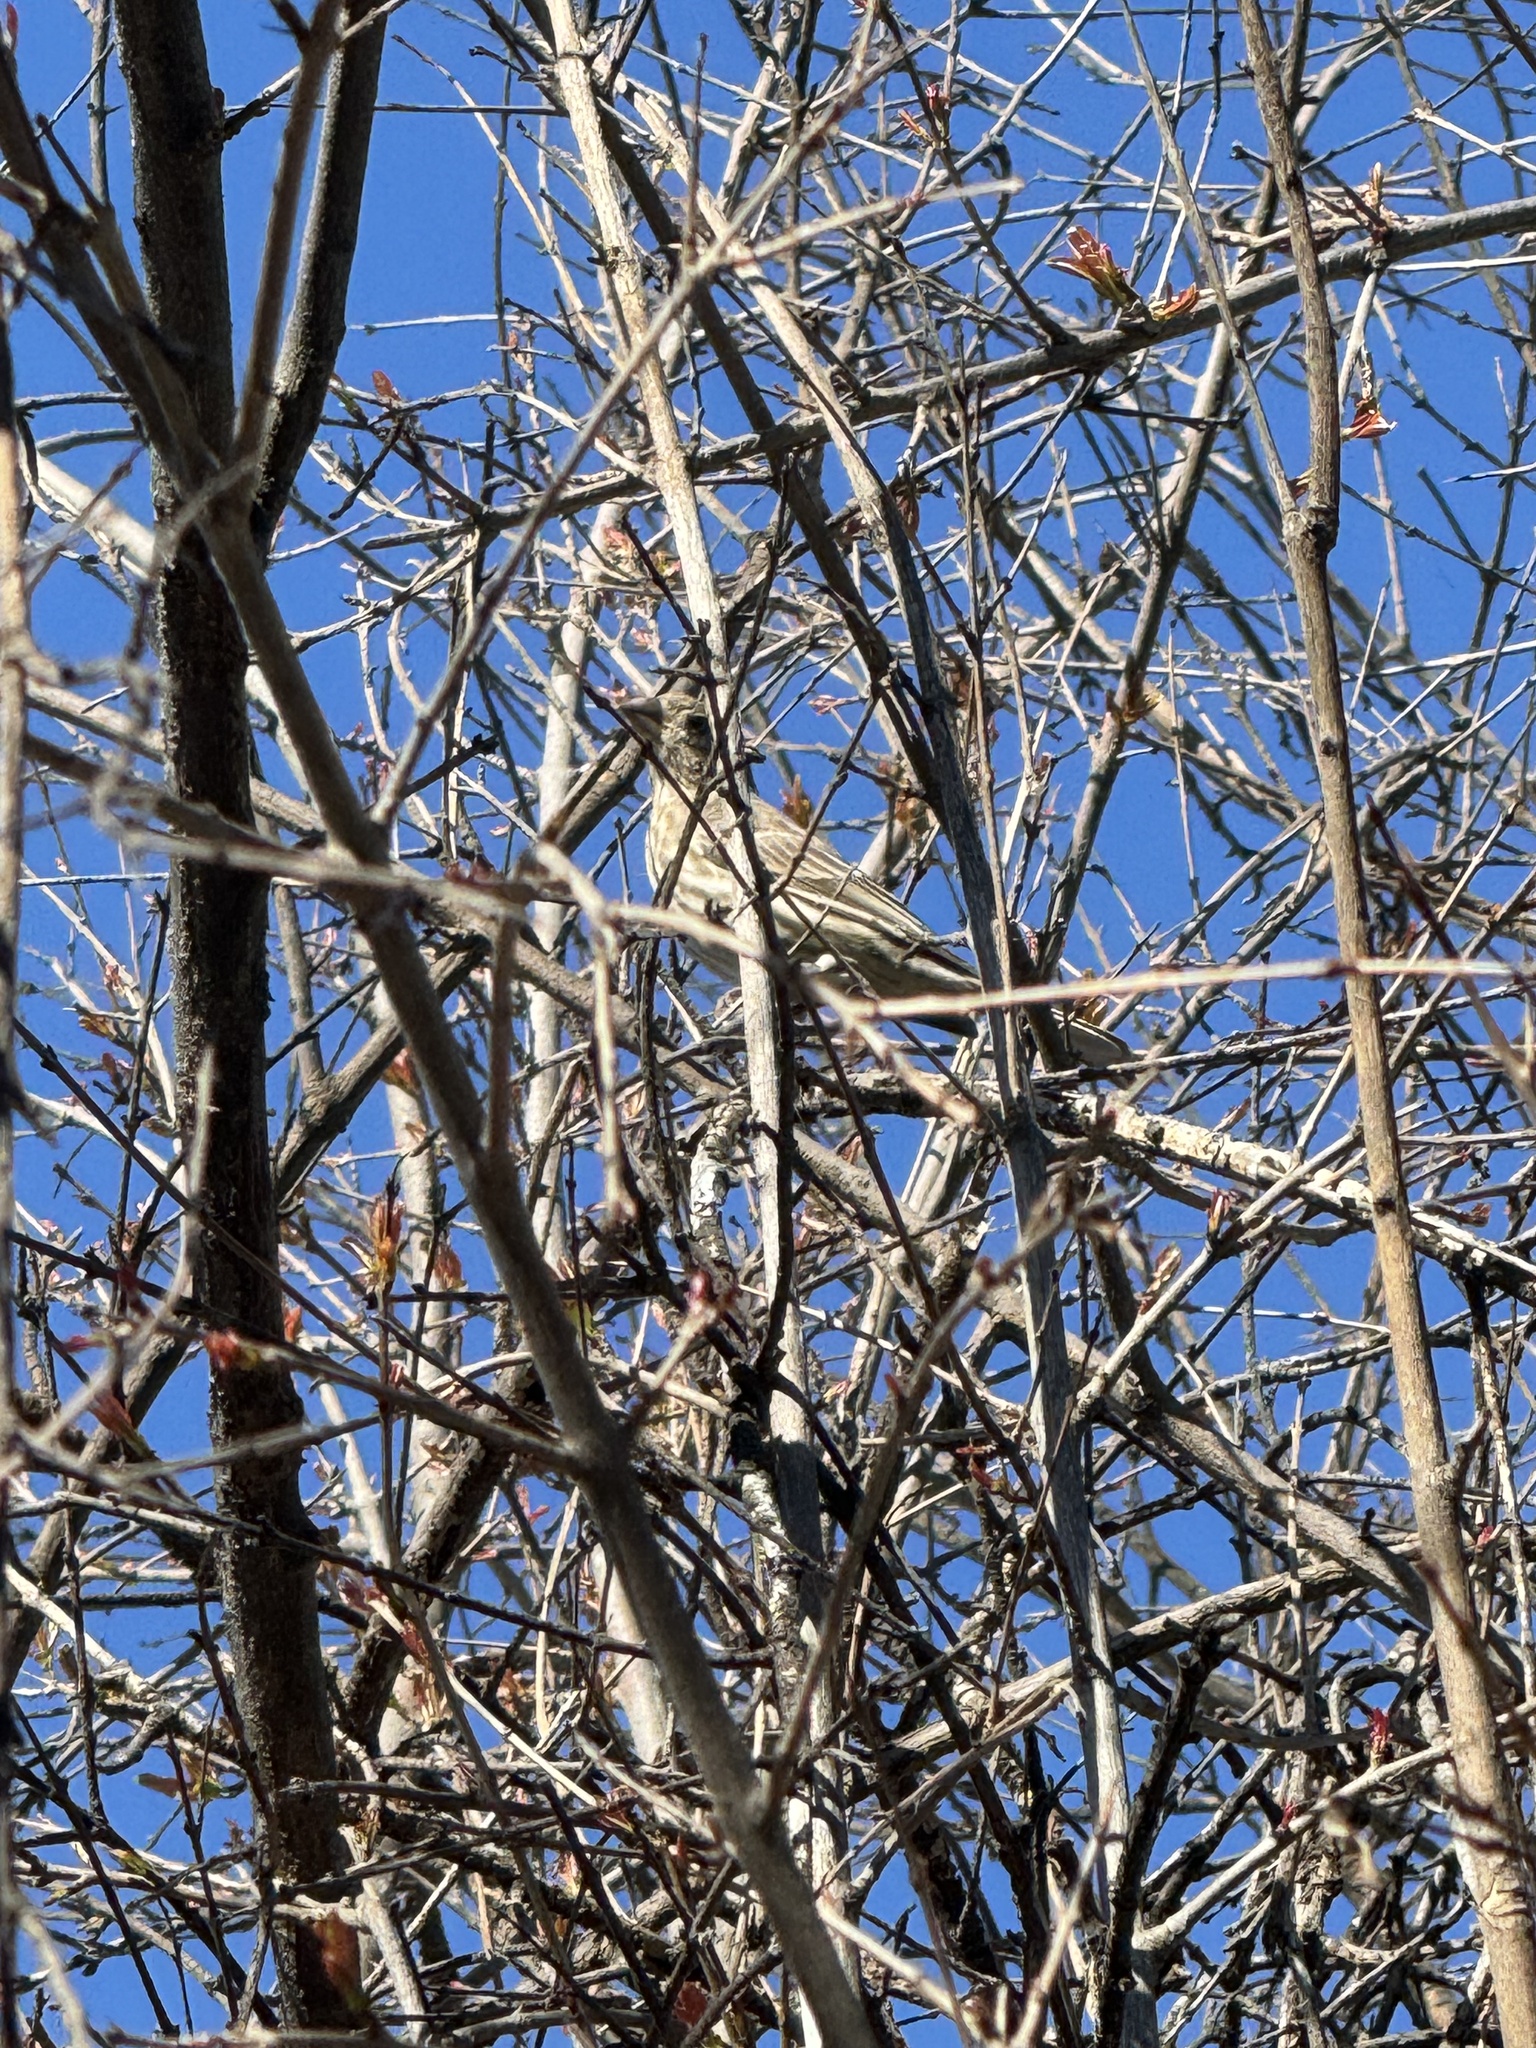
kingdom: Animalia
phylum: Chordata
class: Aves
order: Passeriformes
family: Fringillidae
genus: Haemorhous
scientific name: Haemorhous mexicanus
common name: House finch
